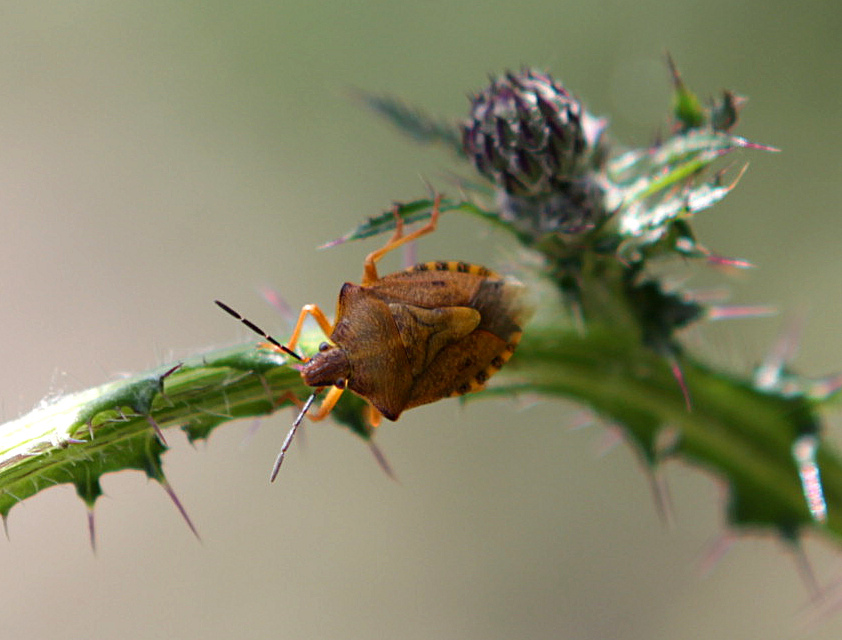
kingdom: Animalia
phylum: Arthropoda
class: Insecta
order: Hemiptera
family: Pentatomidae
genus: Carpocoris
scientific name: Carpocoris purpureipennis
